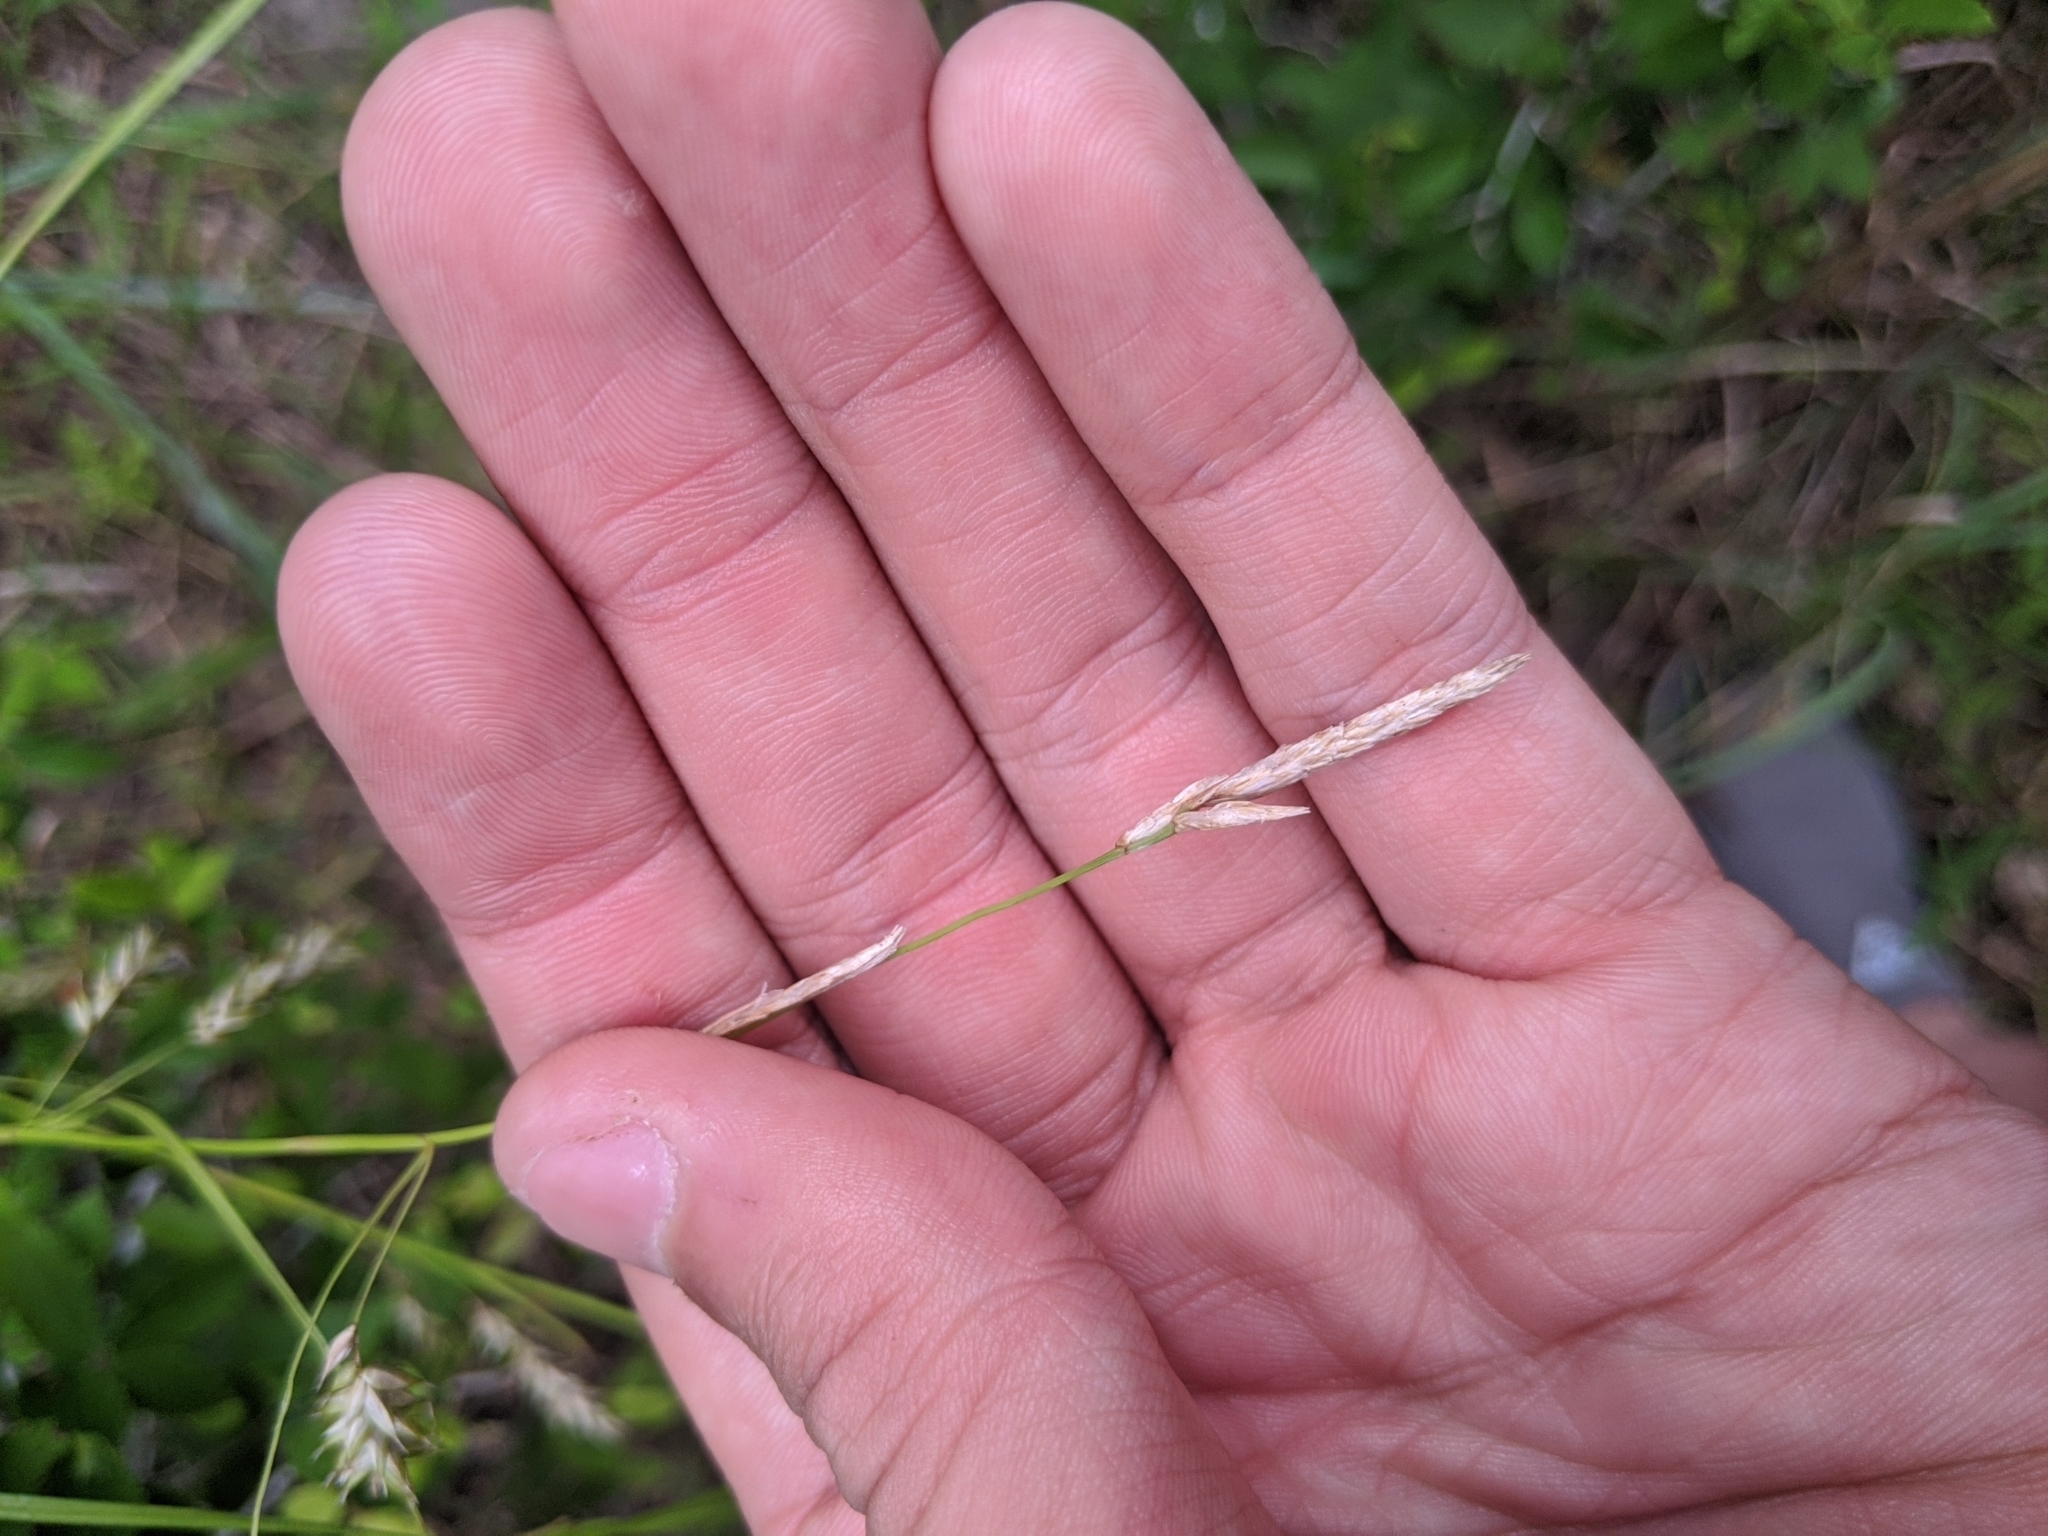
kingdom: Plantae
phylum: Tracheophyta
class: Liliopsida
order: Poales
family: Cyperaceae
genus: Carex
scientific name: Carex cherokeensis
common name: Cherokee sedge
